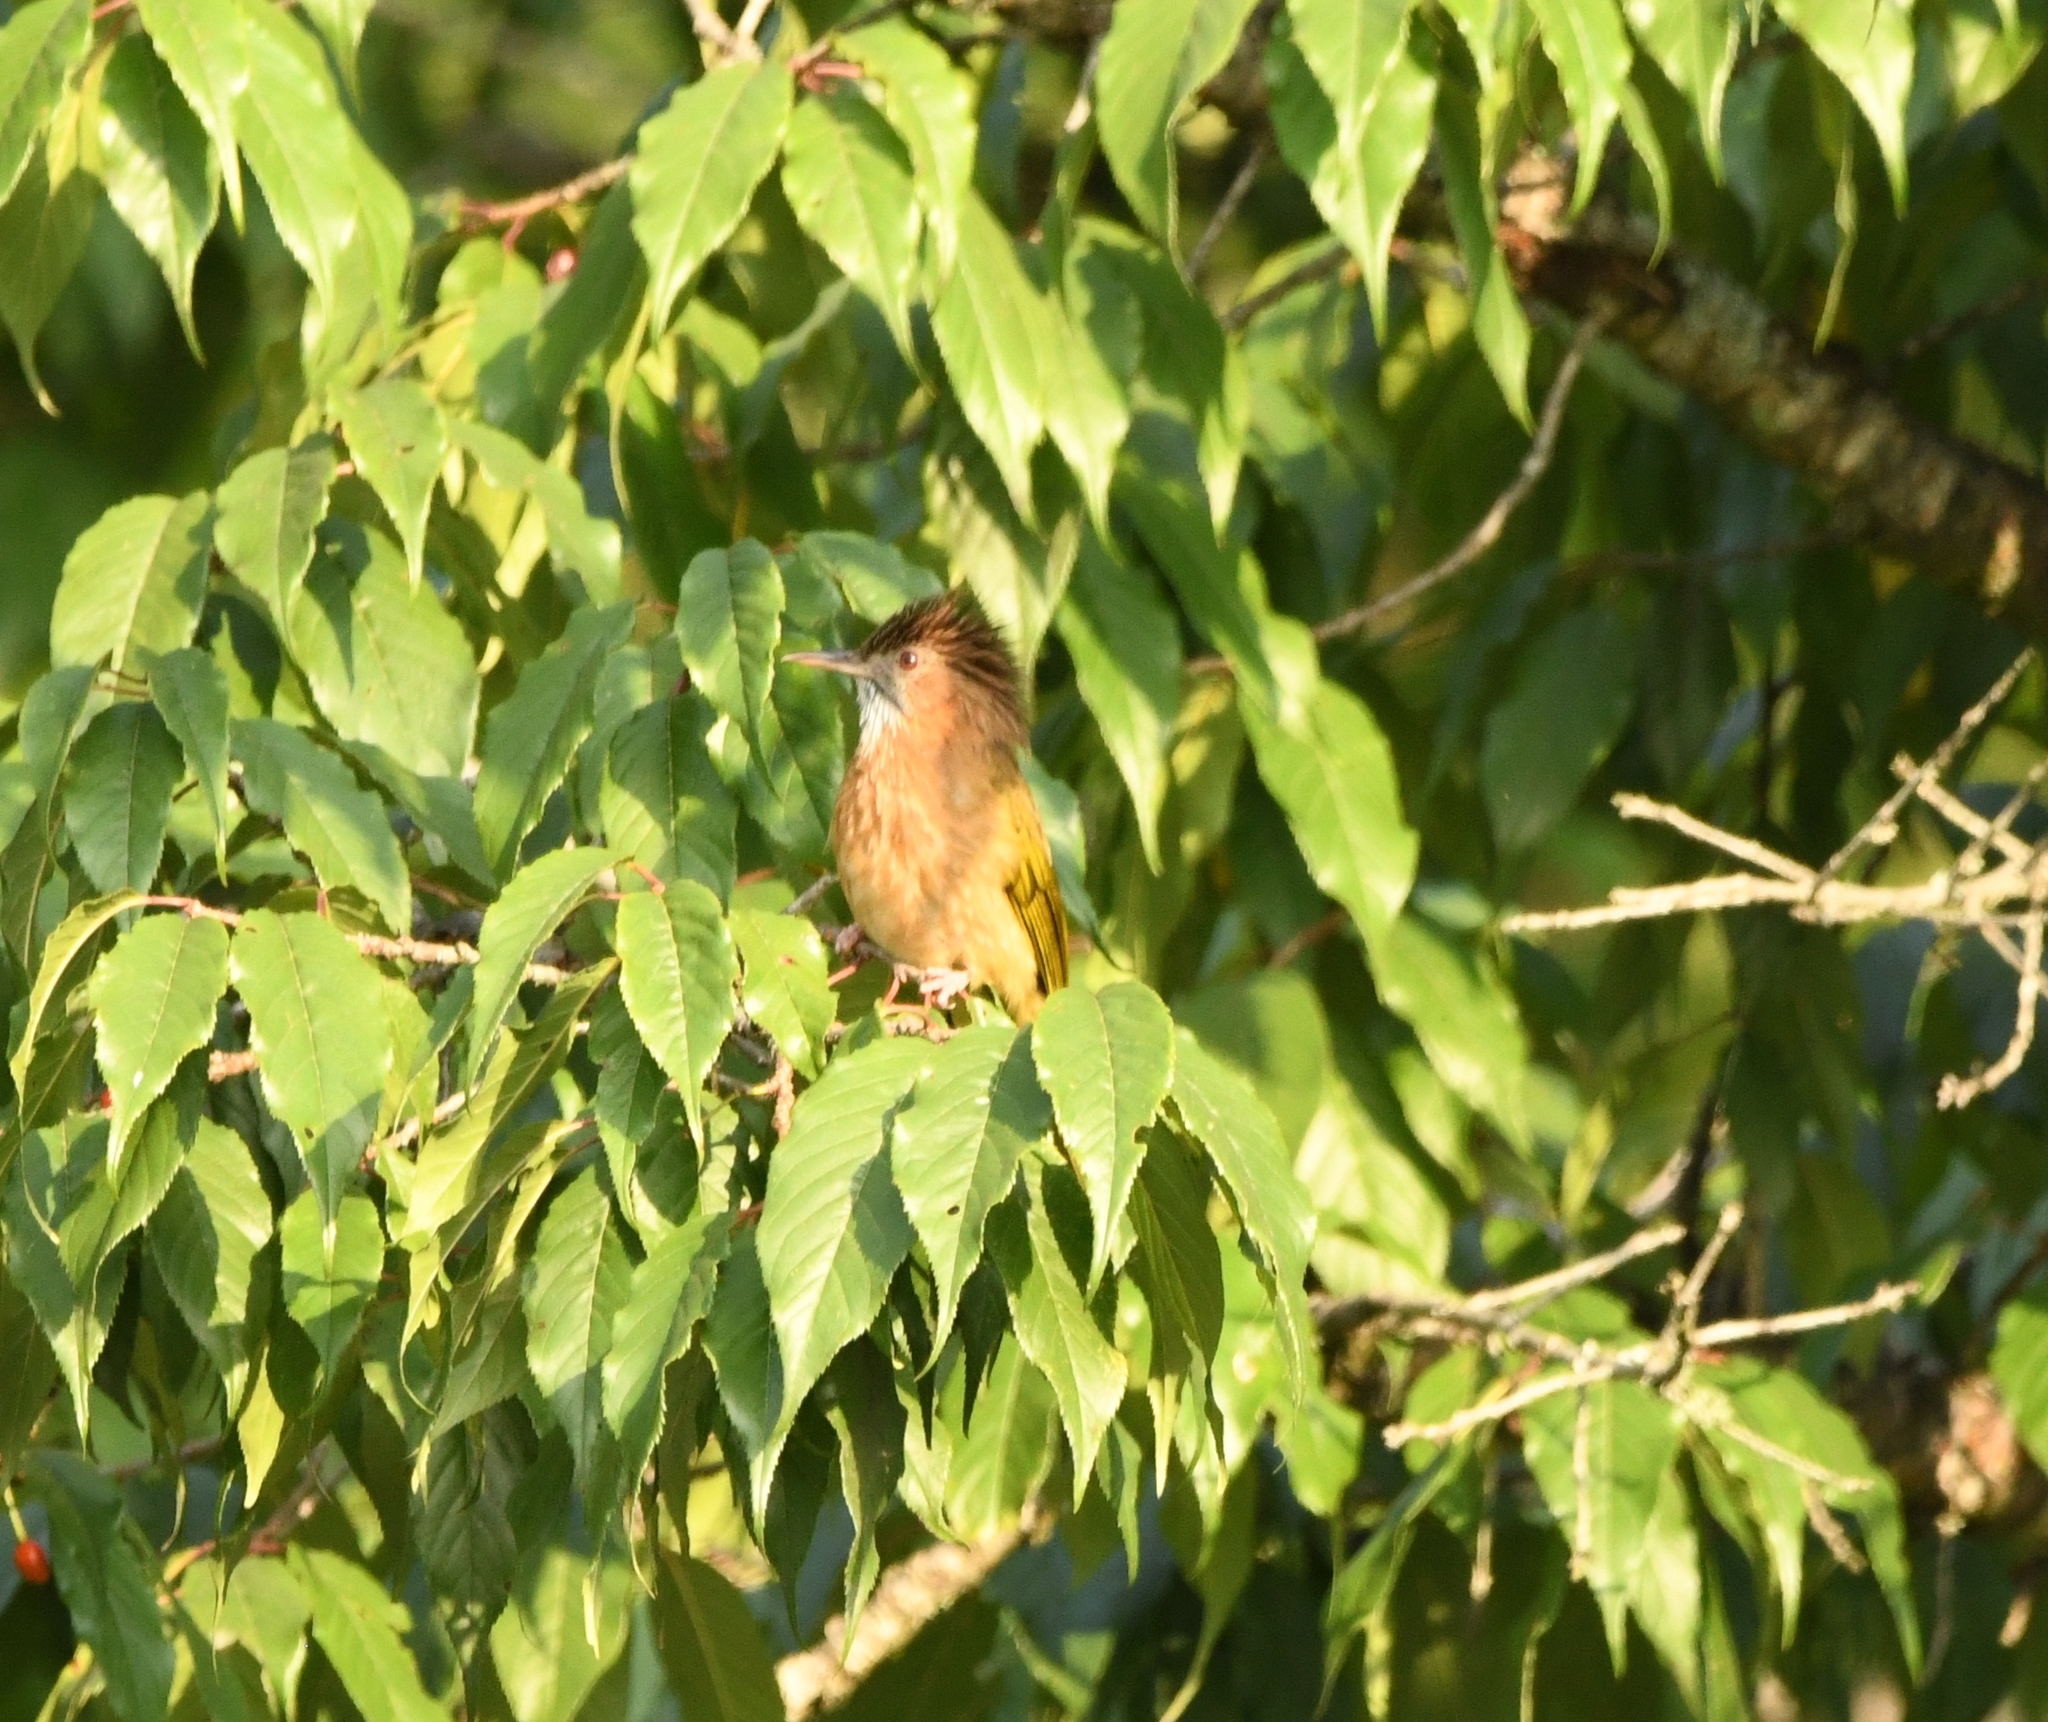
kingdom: Animalia
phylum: Chordata
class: Aves
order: Passeriformes
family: Pycnonotidae
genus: Ixos
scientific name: Ixos mcclellandii
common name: Mountain bulbul
